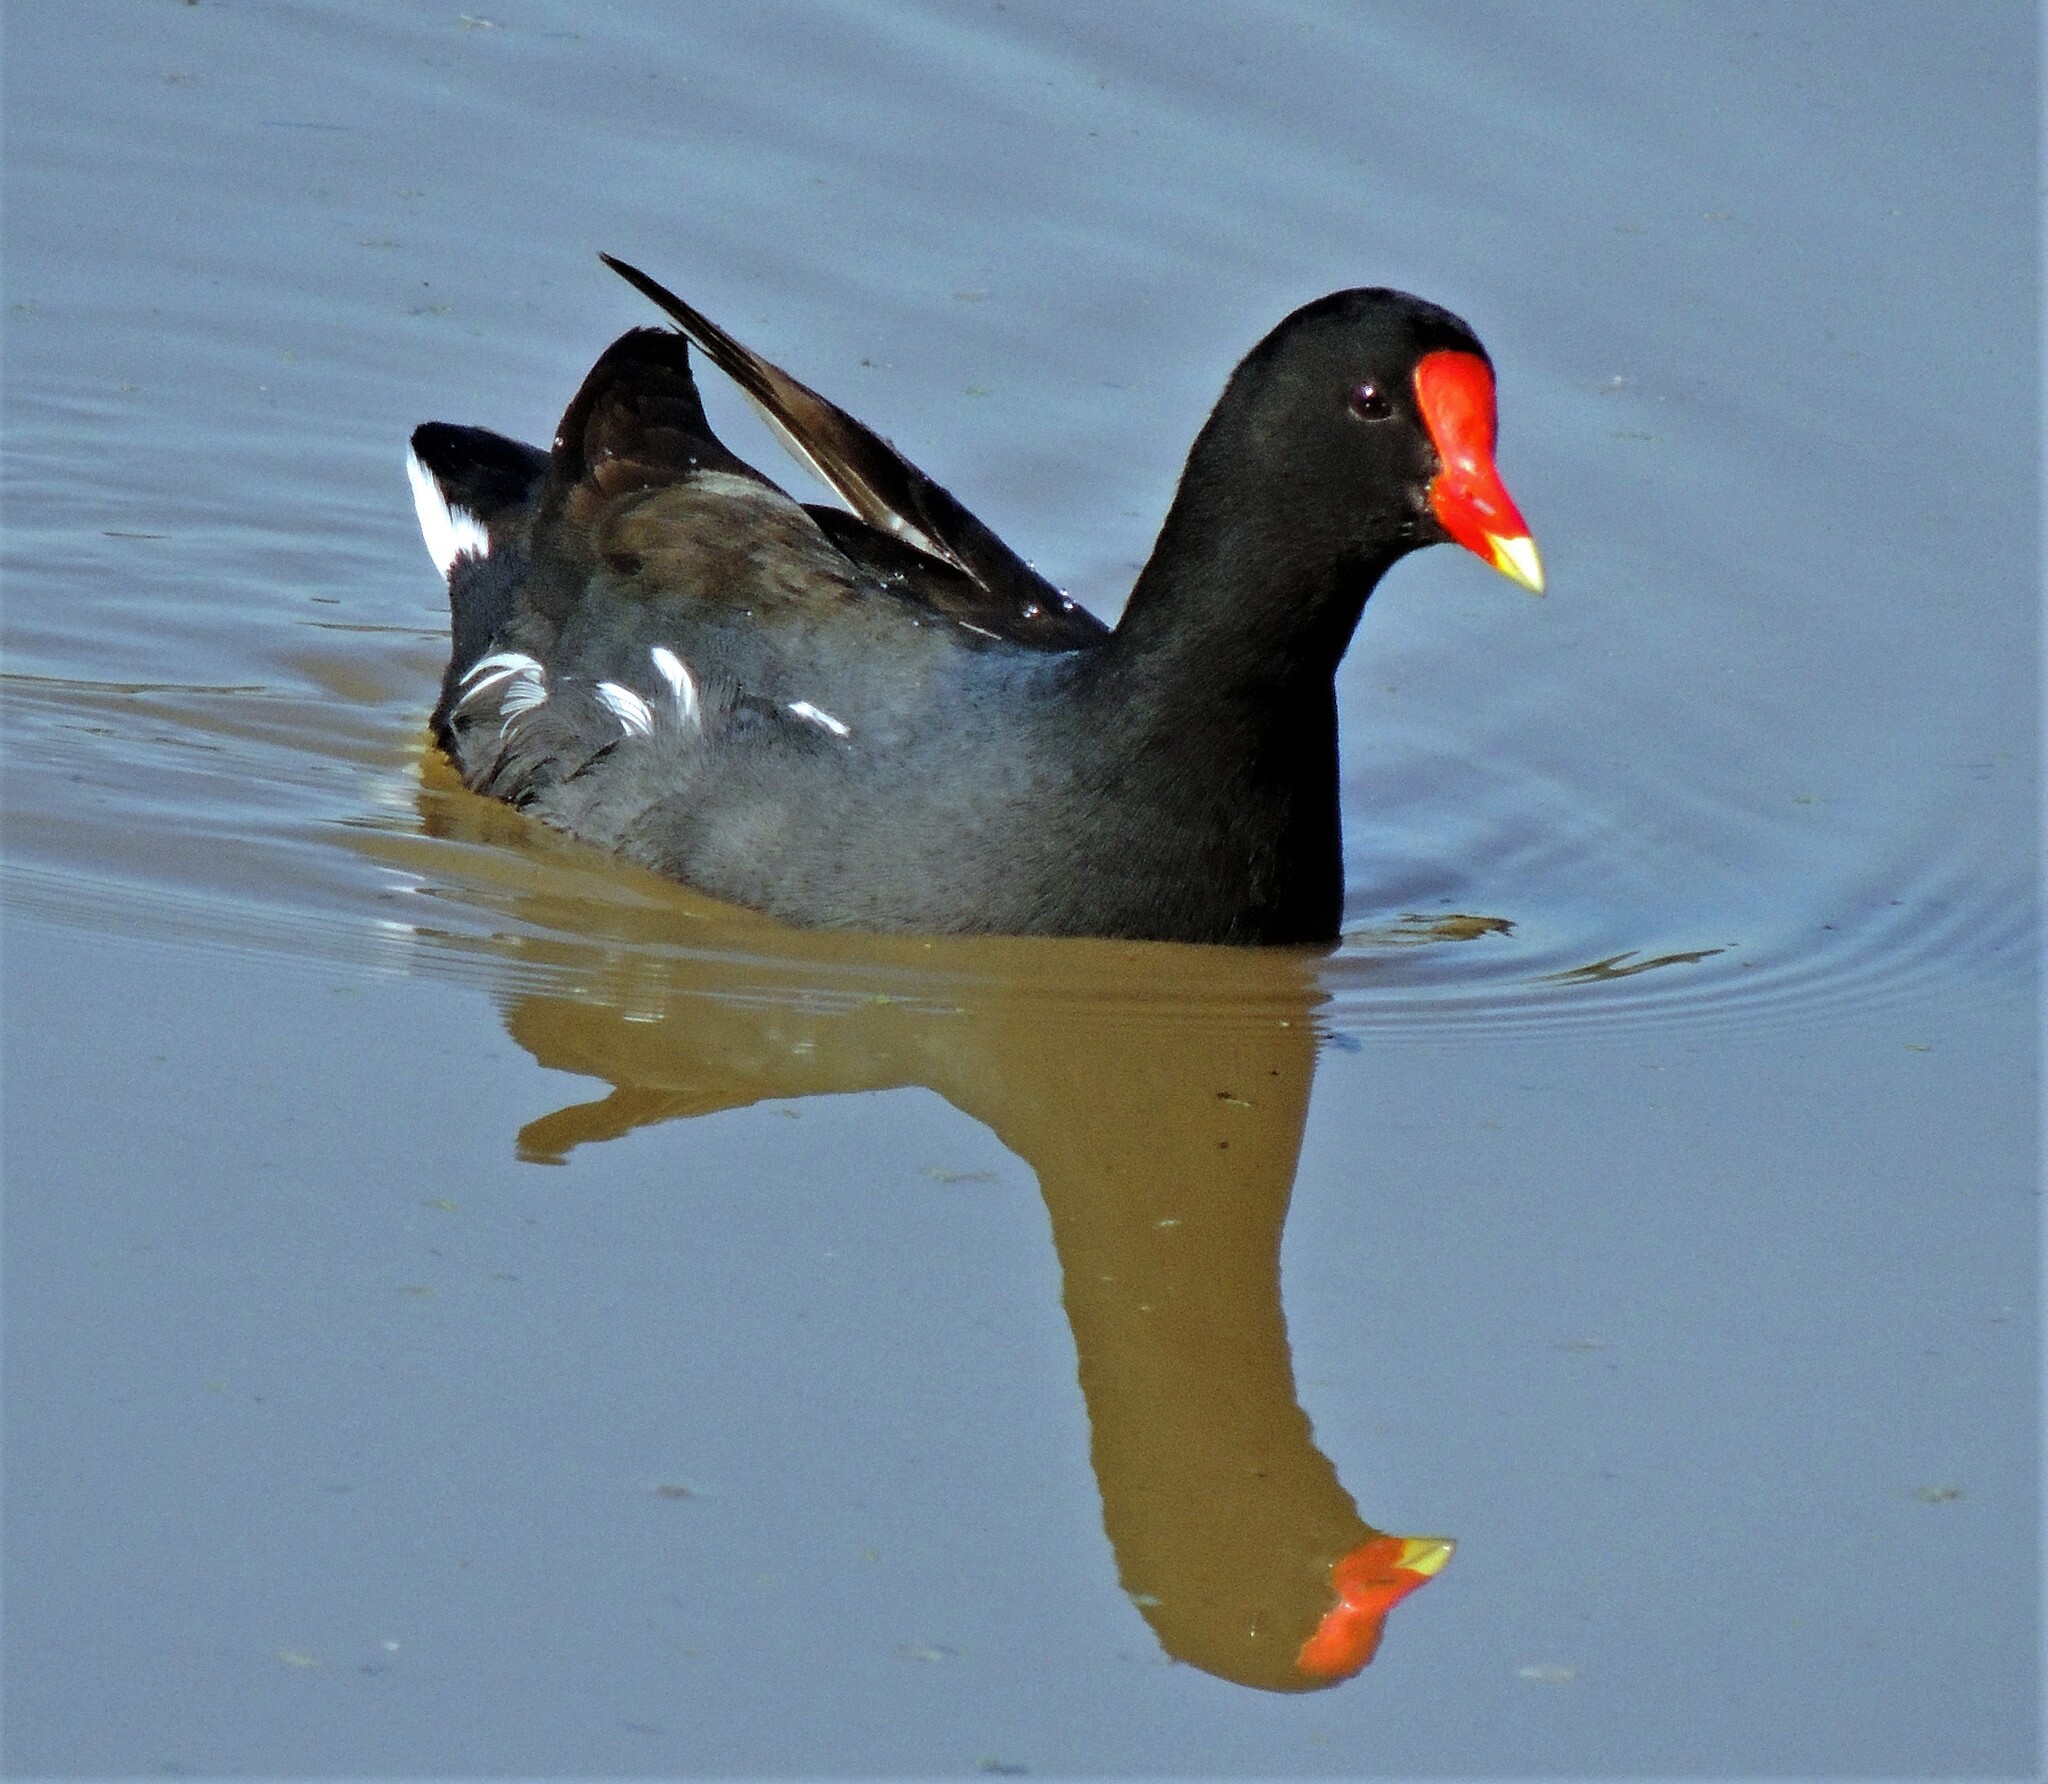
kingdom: Animalia
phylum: Chordata
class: Aves
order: Gruiformes
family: Rallidae
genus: Gallinula
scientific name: Gallinula chloropus
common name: Common moorhen
